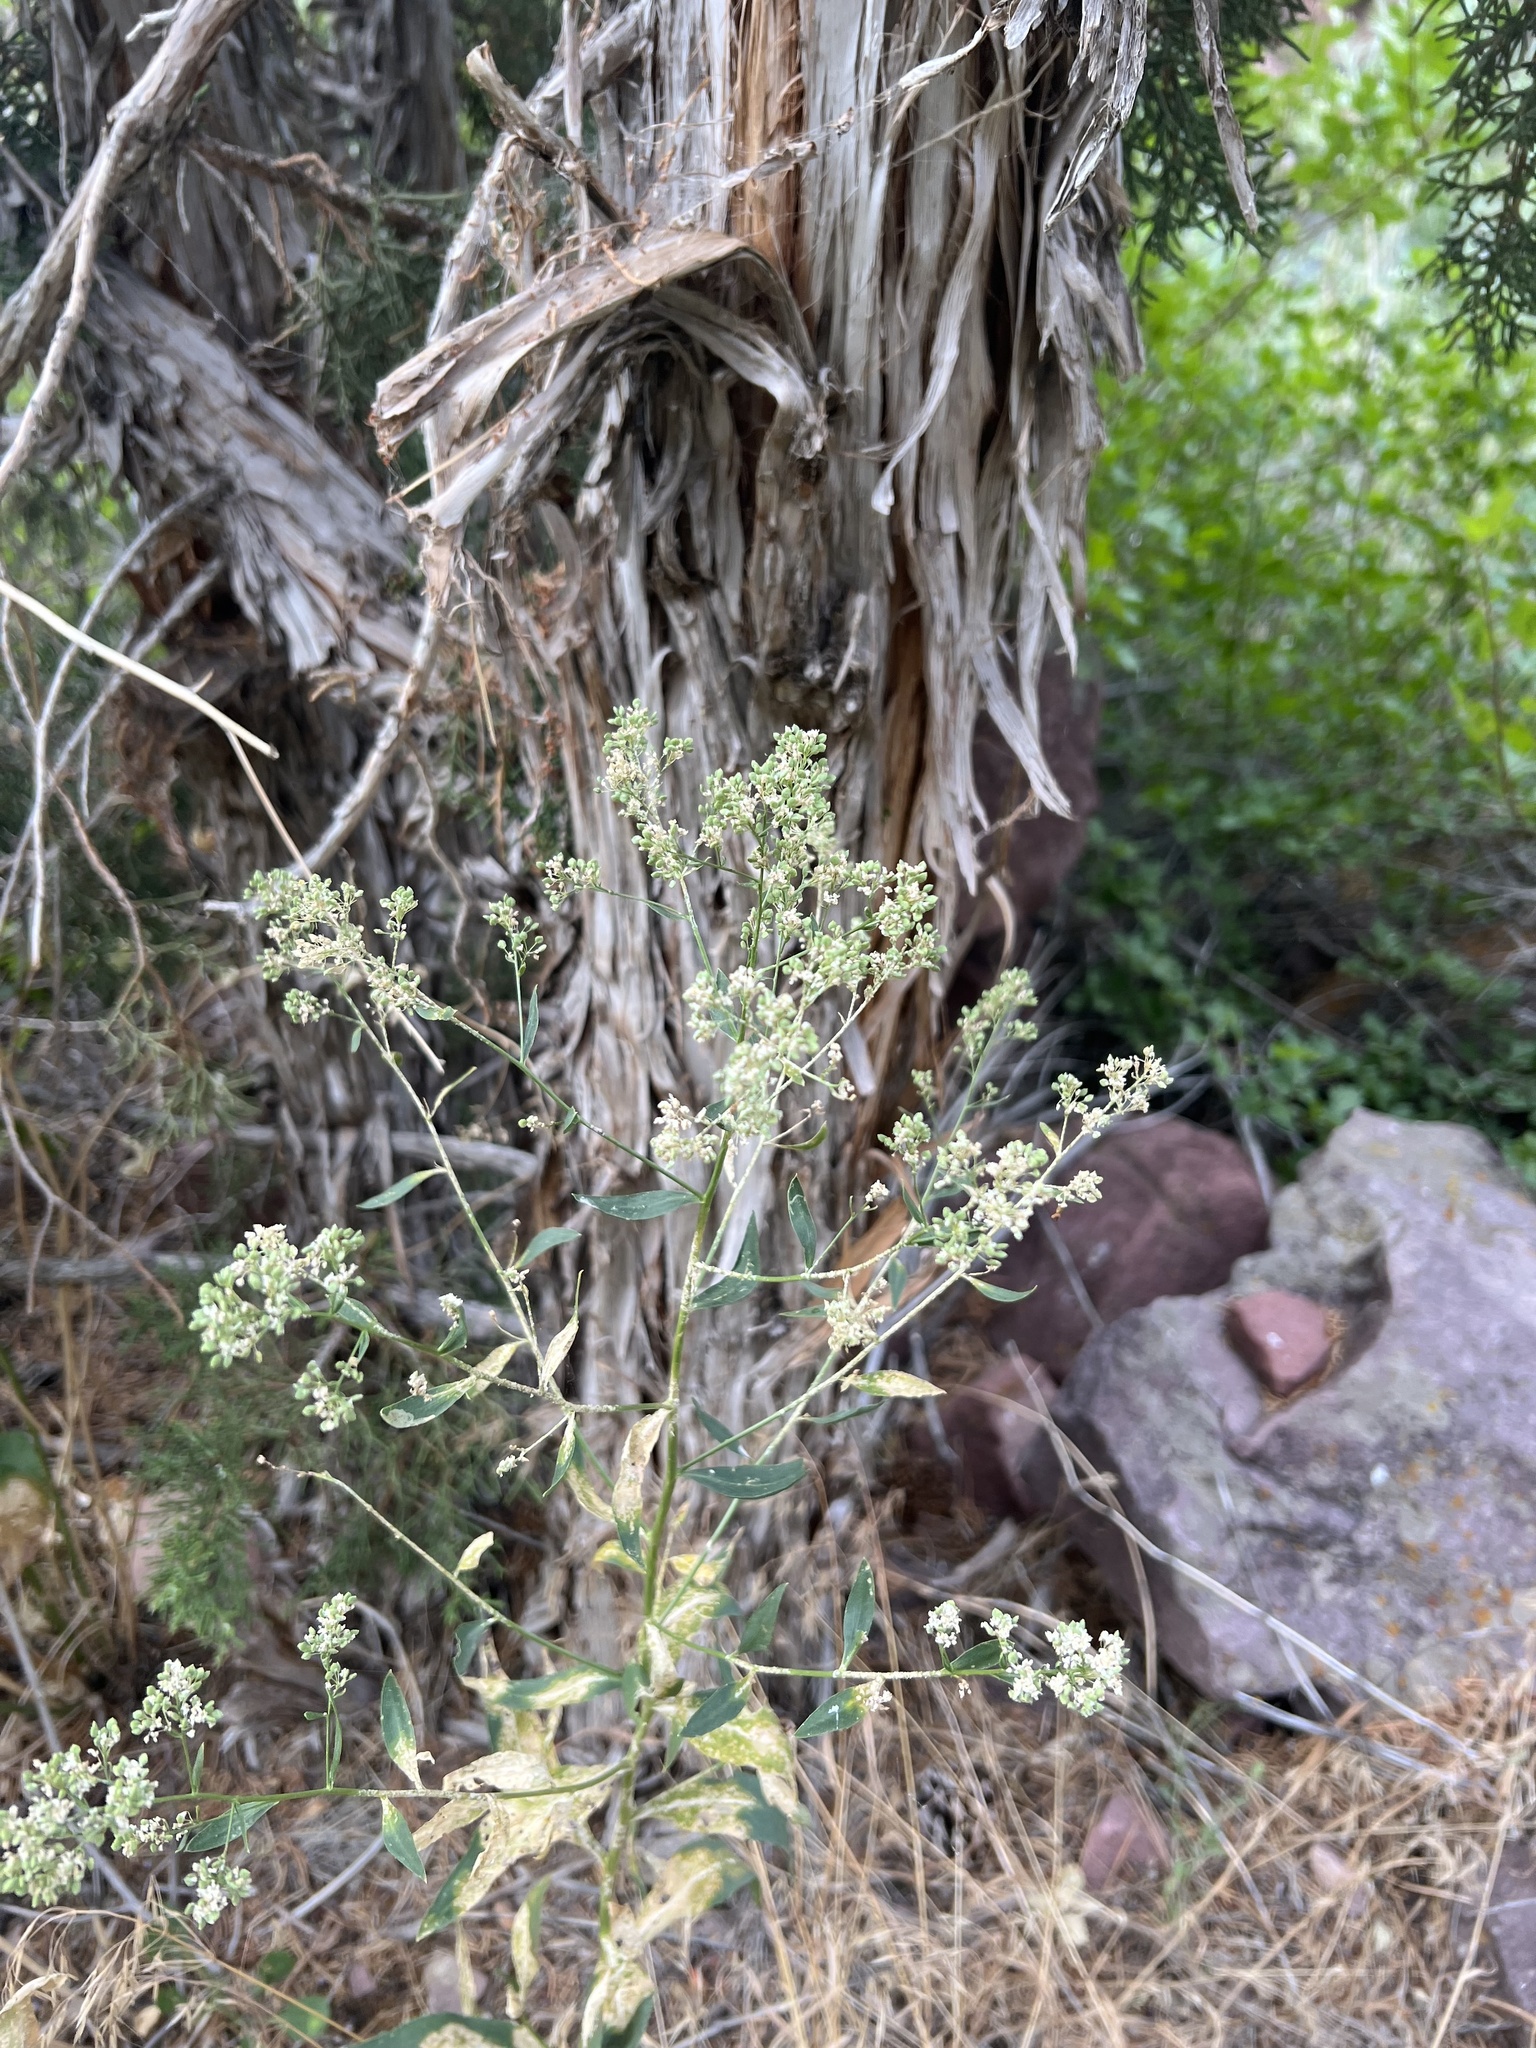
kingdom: Plantae
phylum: Tracheophyta
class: Magnoliopsida
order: Brassicales
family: Brassicaceae
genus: Lepidium
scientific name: Lepidium latifolium
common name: Dittander
